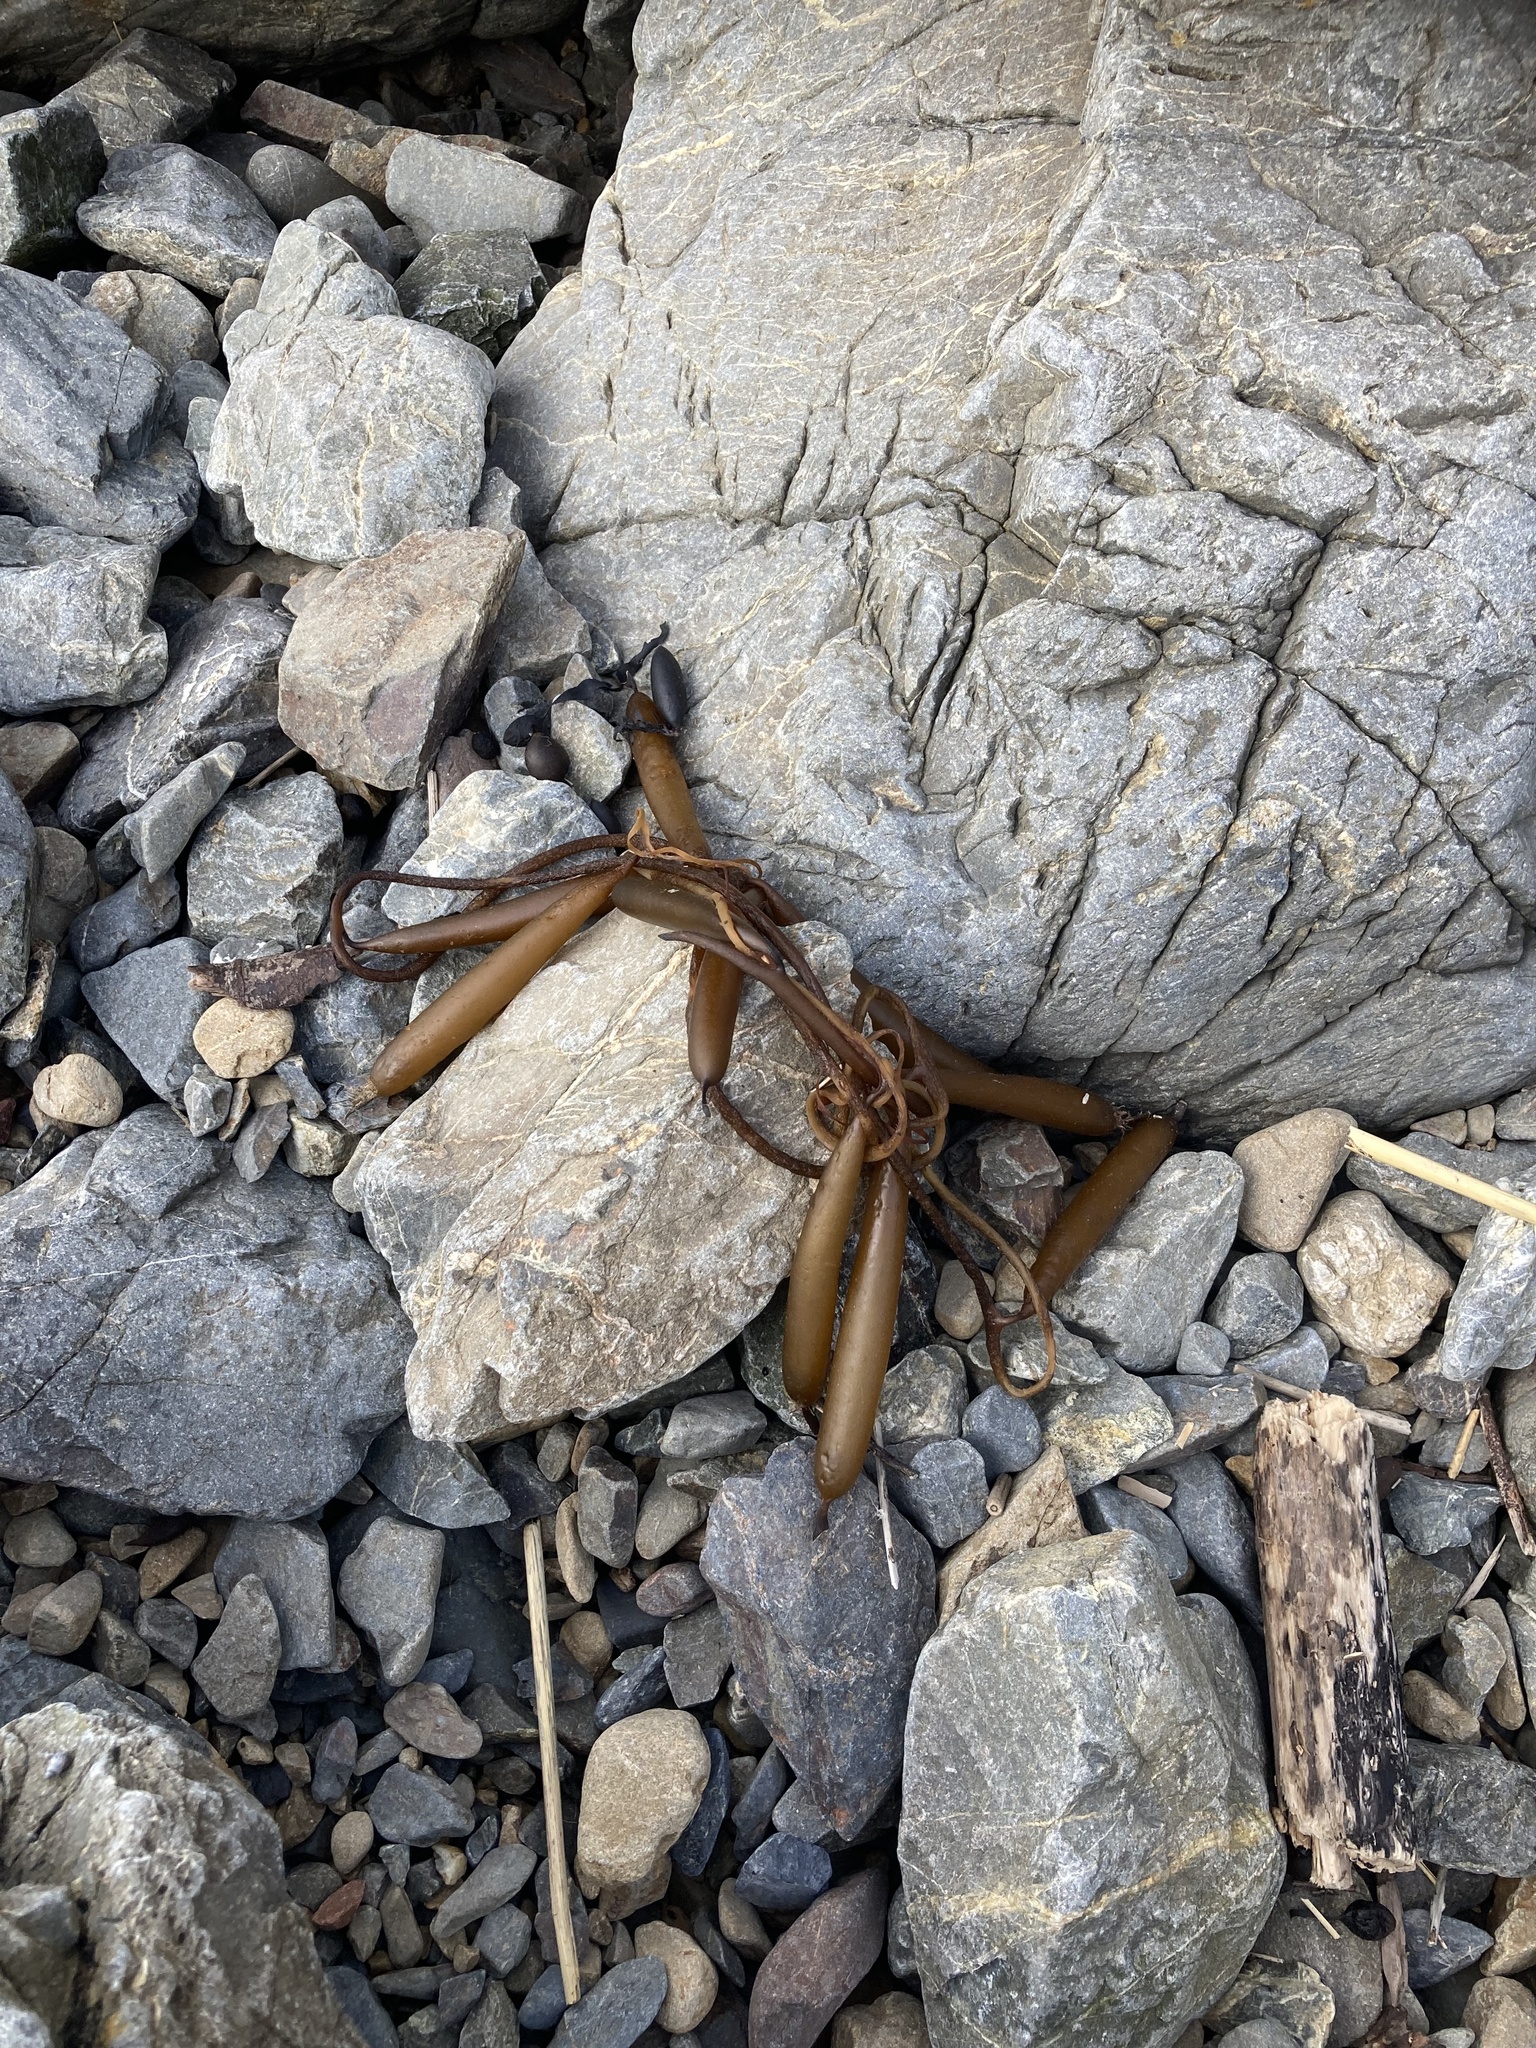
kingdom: Chromista
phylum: Ochrophyta
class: Phaeophyceae
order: Laminariales
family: Laminariaceae
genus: Macrocystis
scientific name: Macrocystis pyrifera
